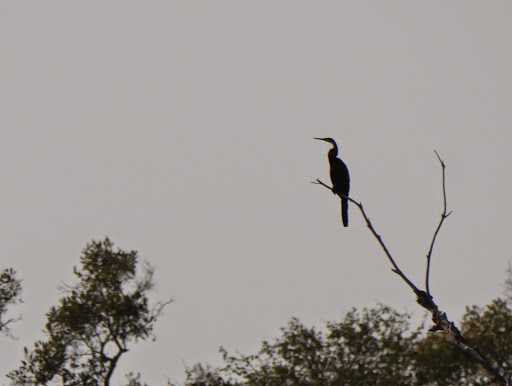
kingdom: Animalia
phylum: Chordata
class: Aves
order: Suliformes
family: Anhingidae
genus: Anhinga
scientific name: Anhinga rufa
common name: African darter
